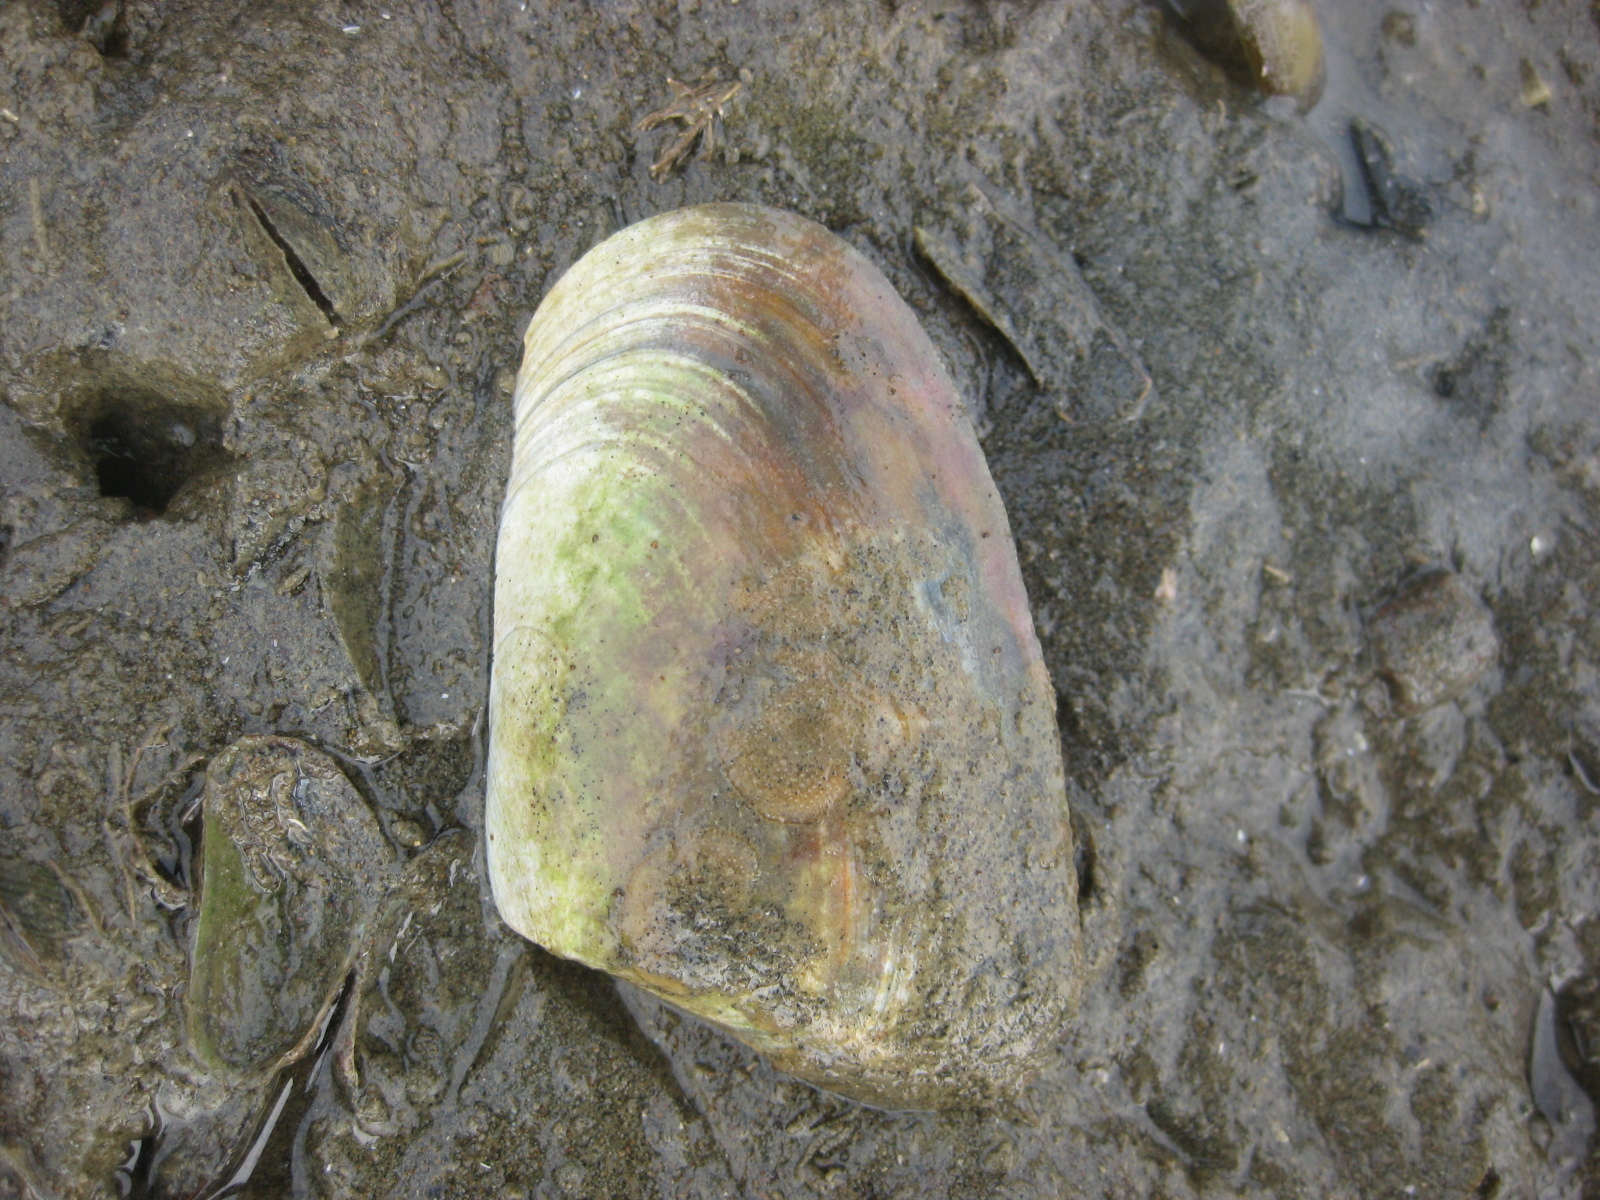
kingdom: Animalia
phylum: Mollusca
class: Bivalvia
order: Venerida
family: Mesodesmatidae
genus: Paphies
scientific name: Paphies subtriangulata
